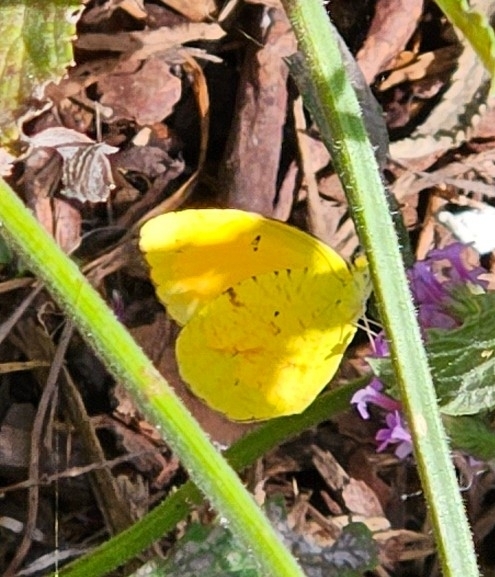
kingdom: Animalia
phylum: Arthropoda
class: Insecta
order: Lepidoptera
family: Pieridae
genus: Abaeis
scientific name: Abaeis nicippe
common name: Sleepy orange
